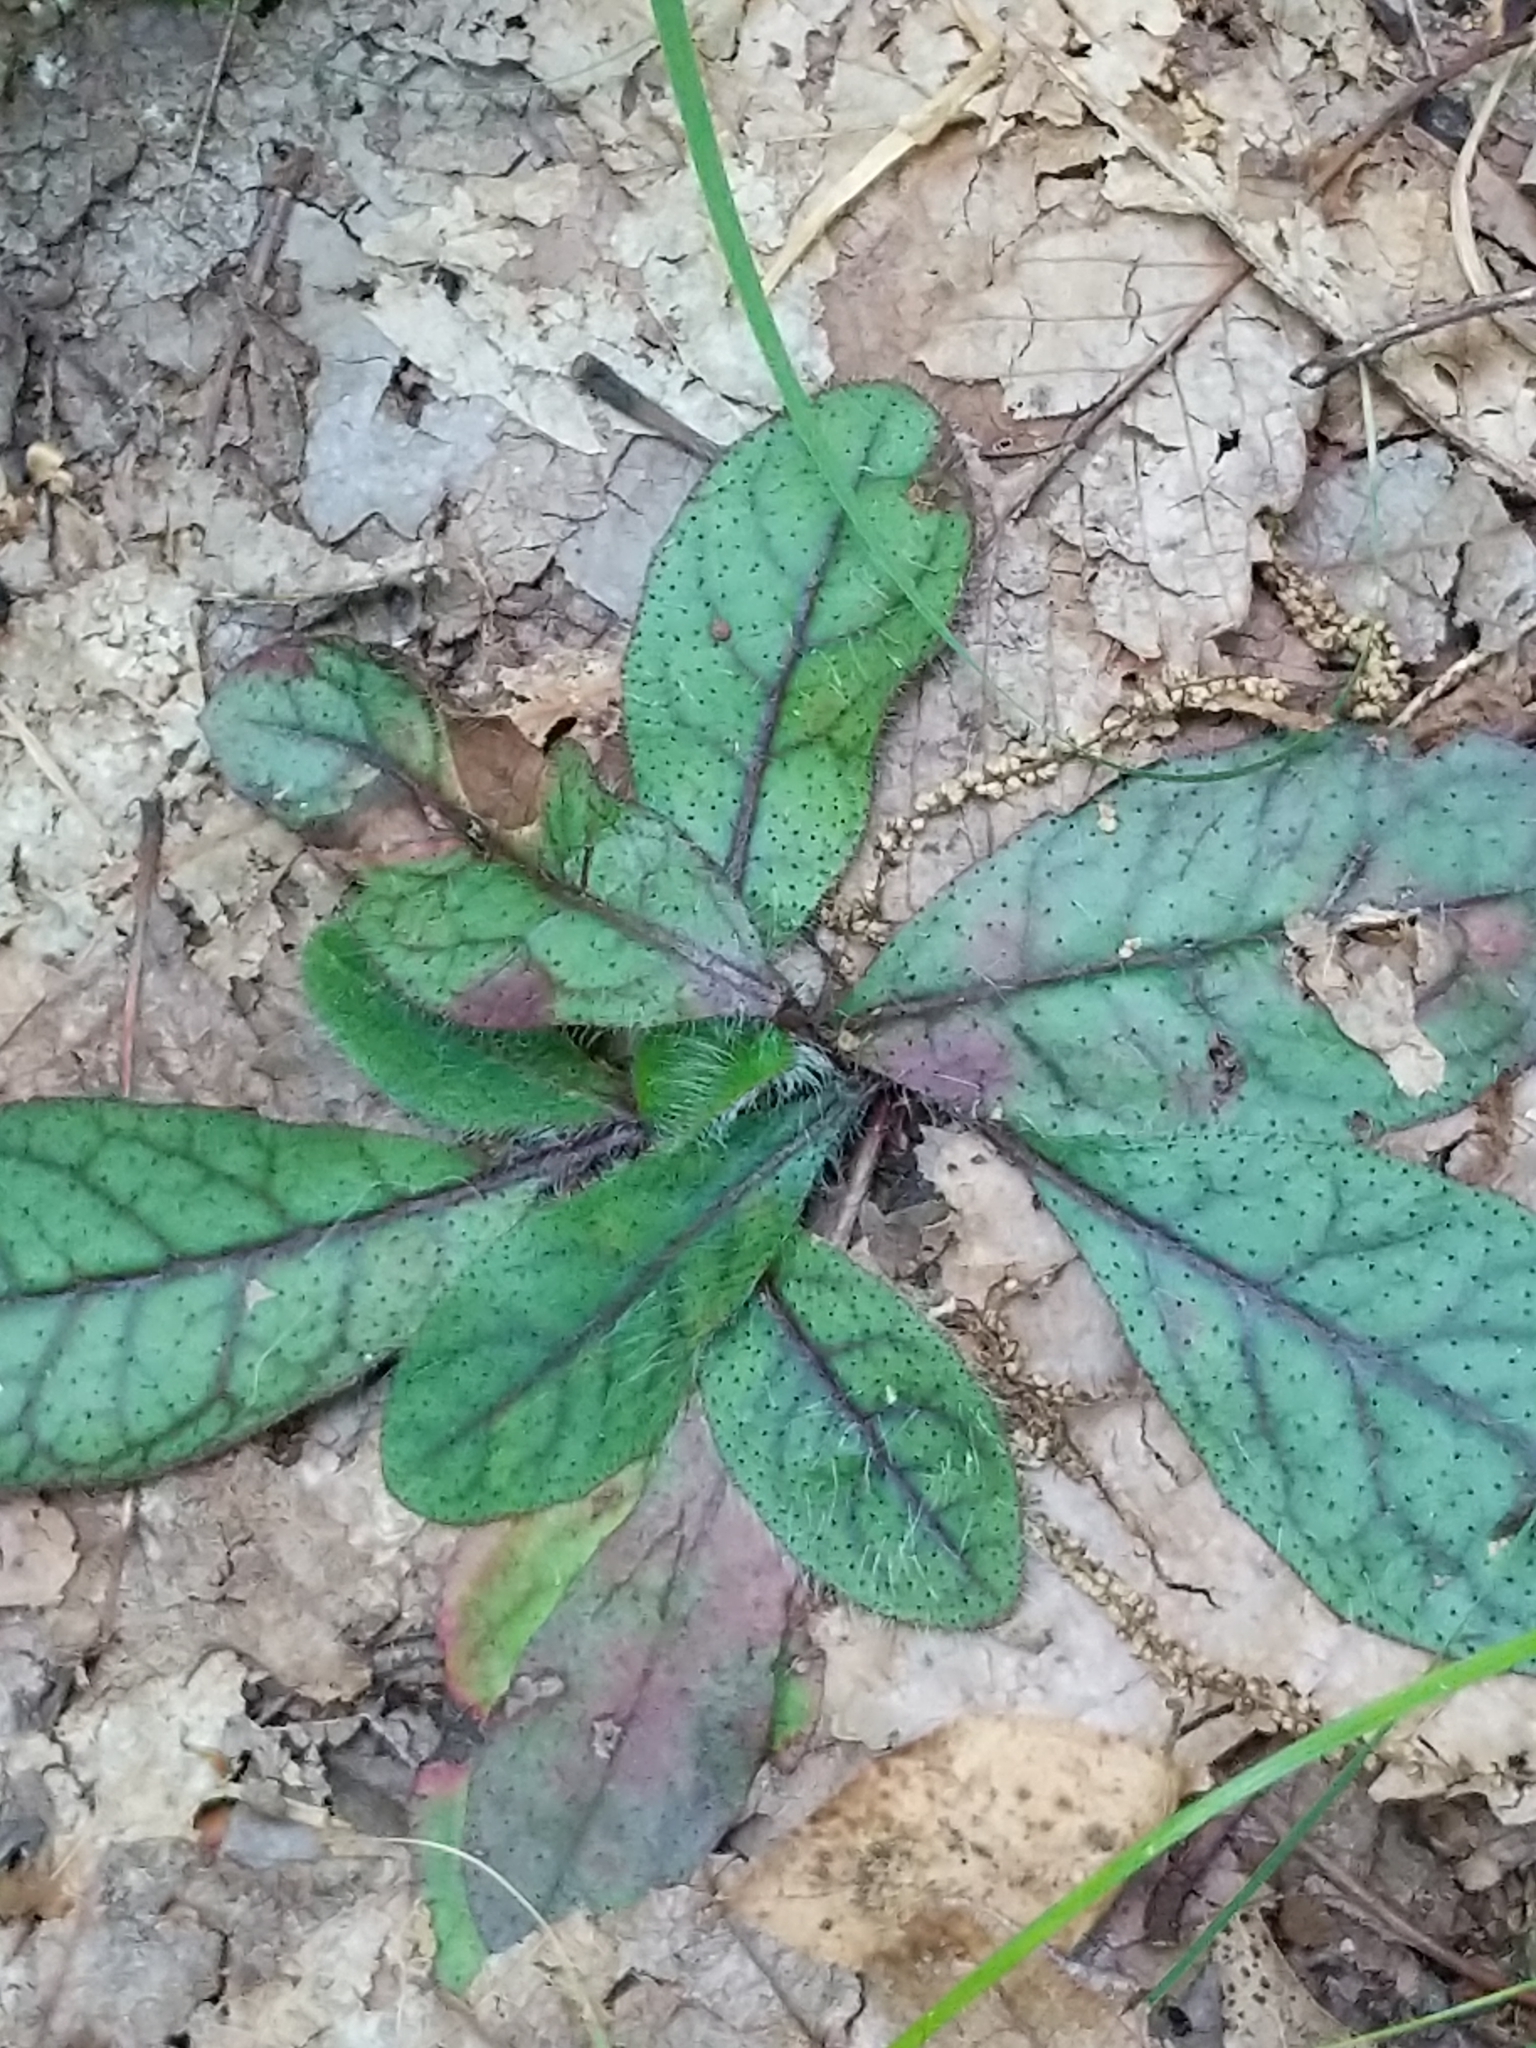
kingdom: Plantae
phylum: Tracheophyta
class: Magnoliopsida
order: Asterales
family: Asteraceae
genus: Hieracium
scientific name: Hieracium venosum
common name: Rattlesnake hawkweed
